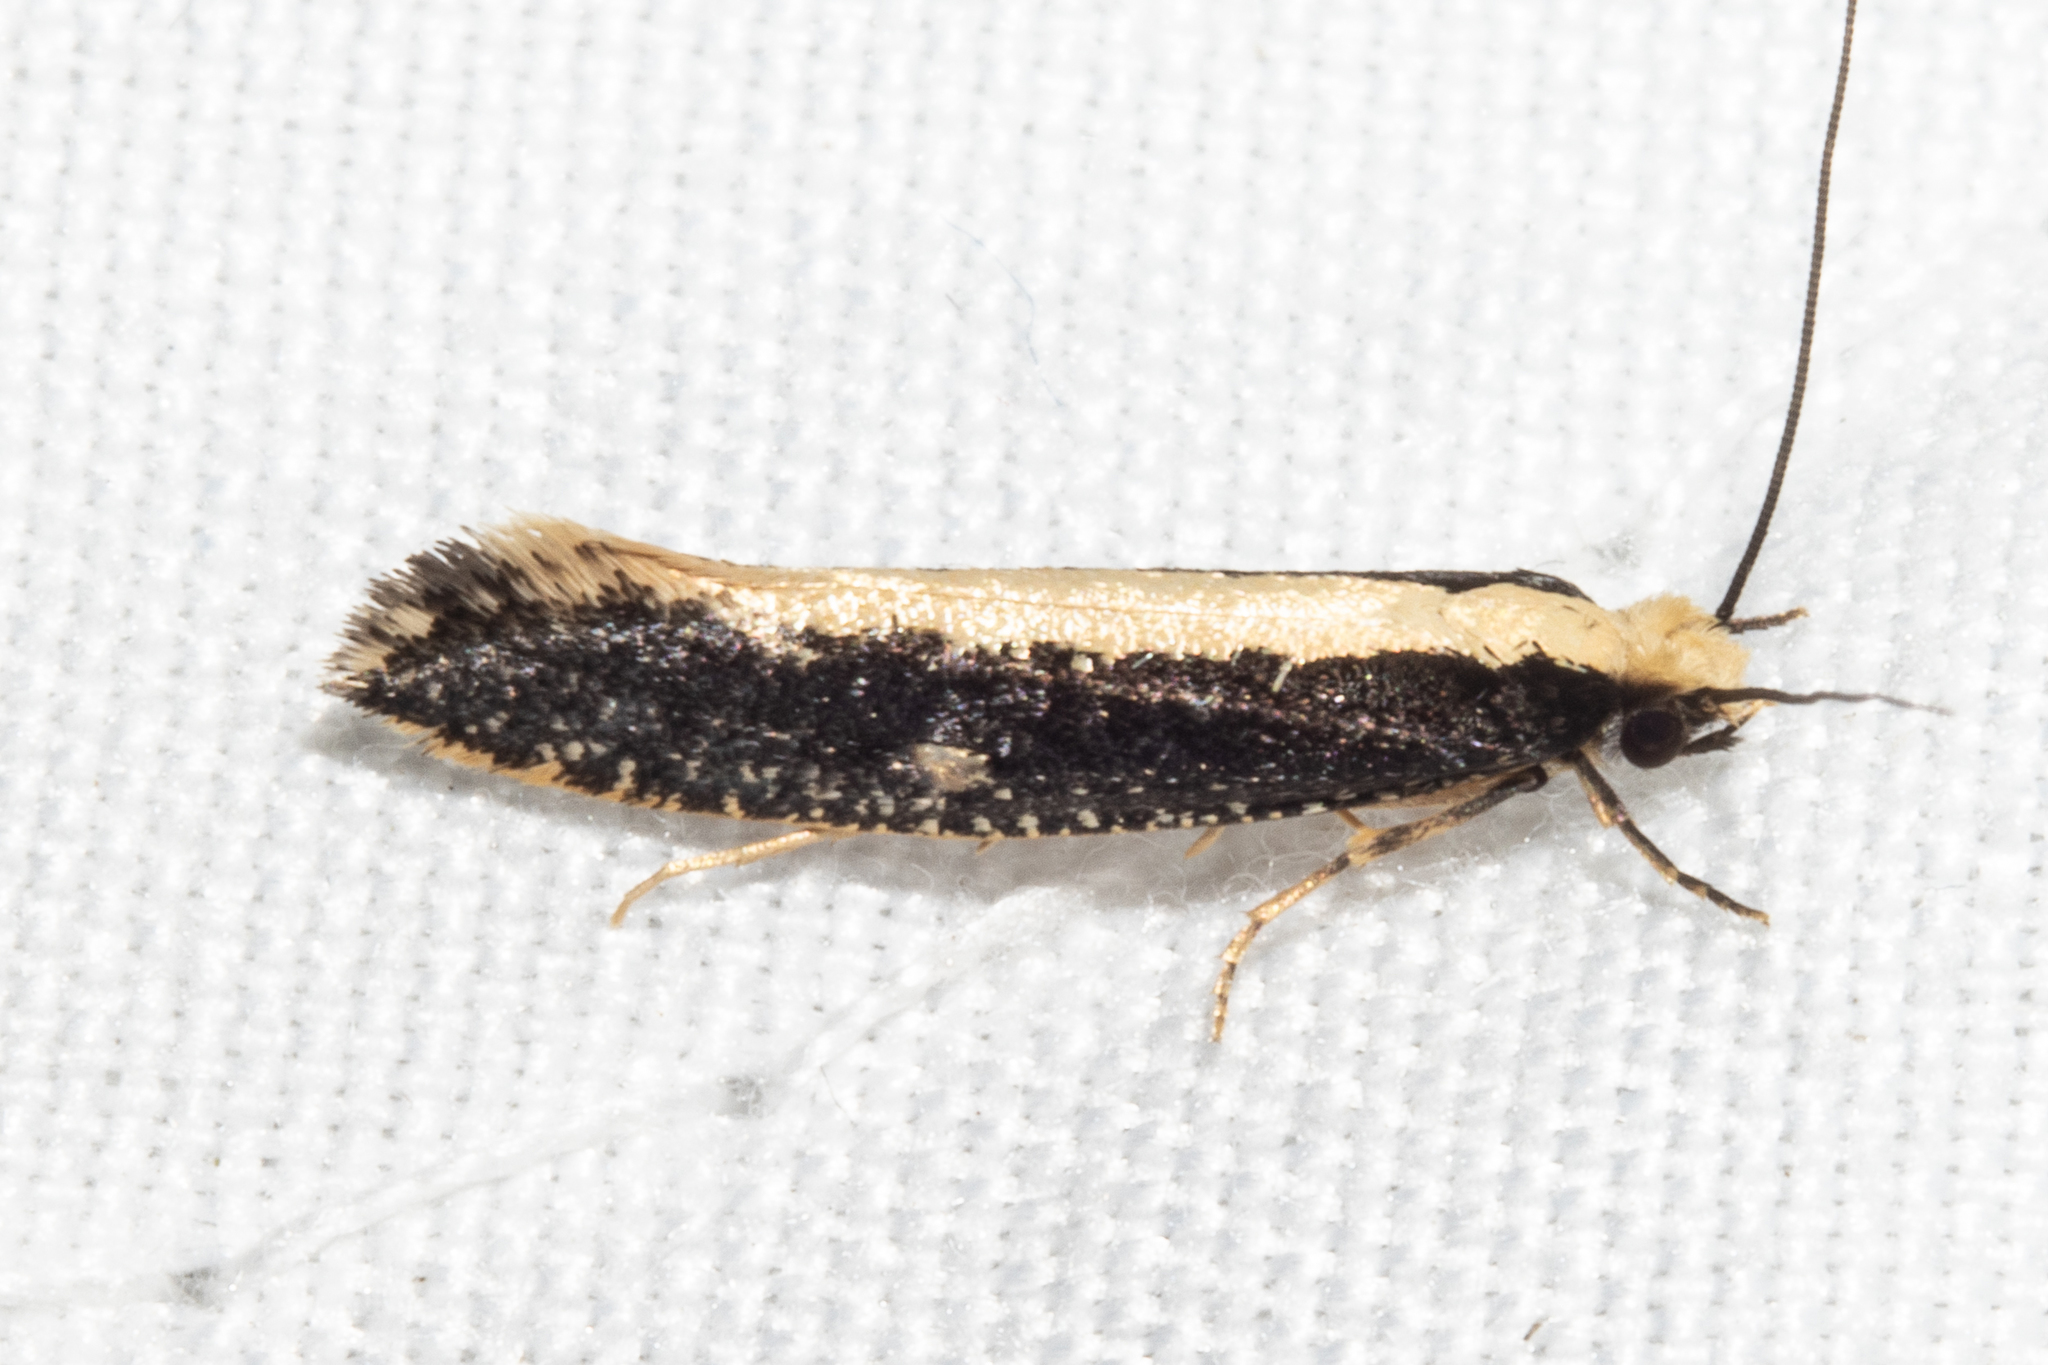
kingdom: Animalia
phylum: Arthropoda
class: Insecta
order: Lepidoptera
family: Tineidae
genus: Monopis
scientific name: Monopis ethelella
